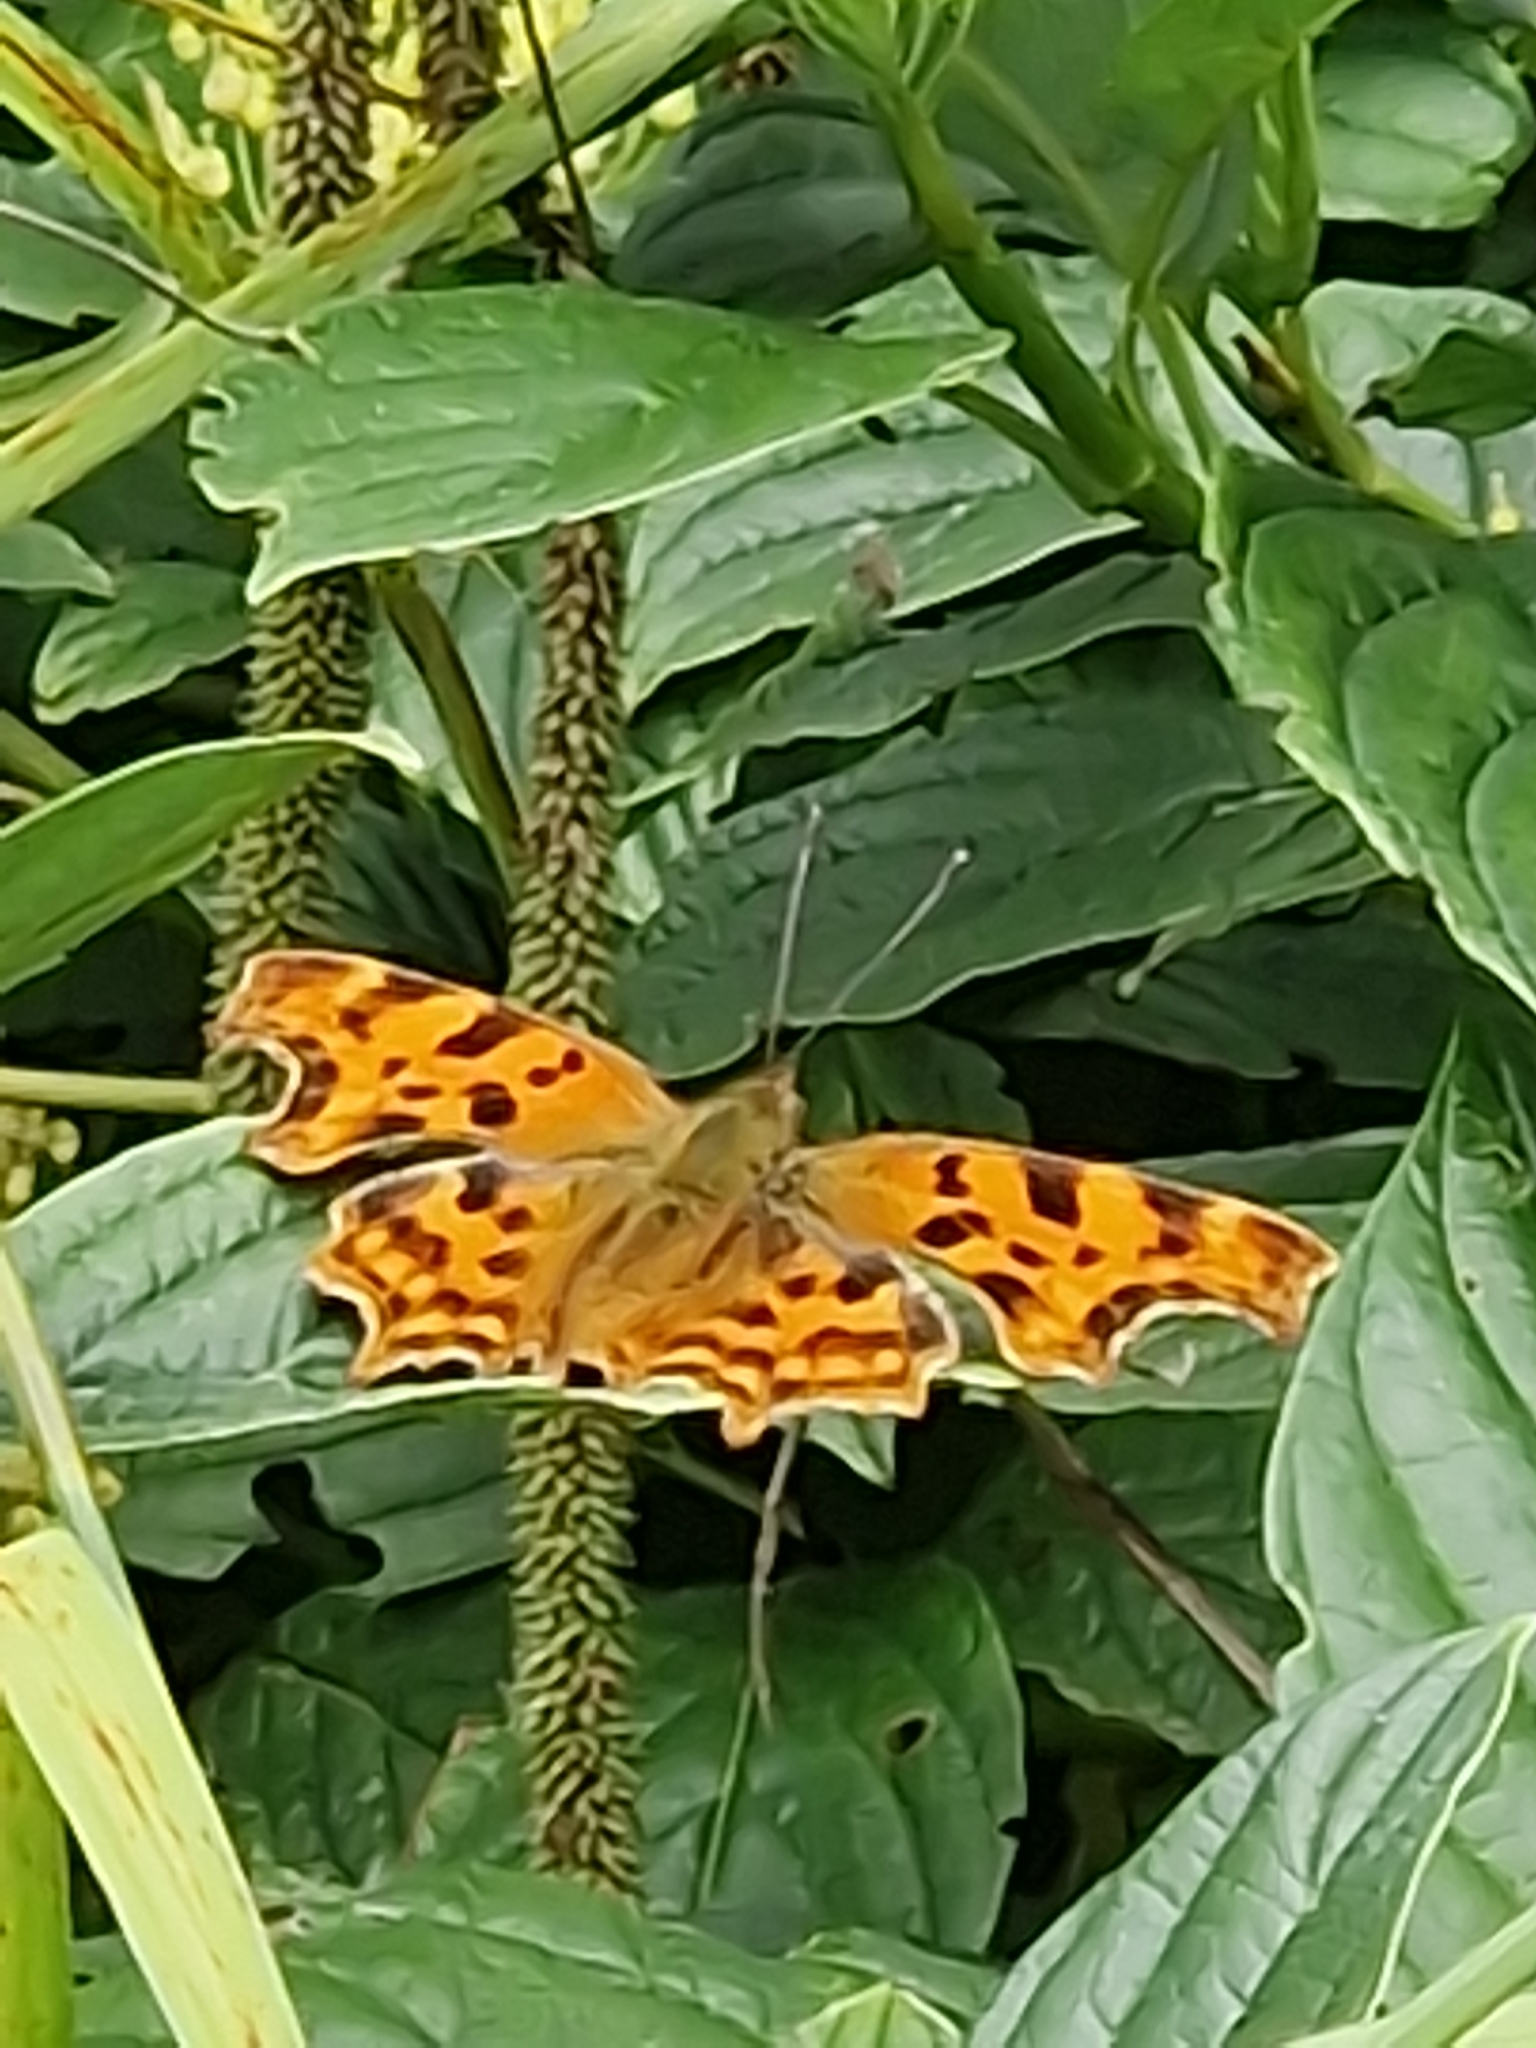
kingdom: Animalia
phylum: Arthropoda
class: Insecta
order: Lepidoptera
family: Nymphalidae
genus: Polygonia
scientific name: Polygonia c-album
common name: Comma
